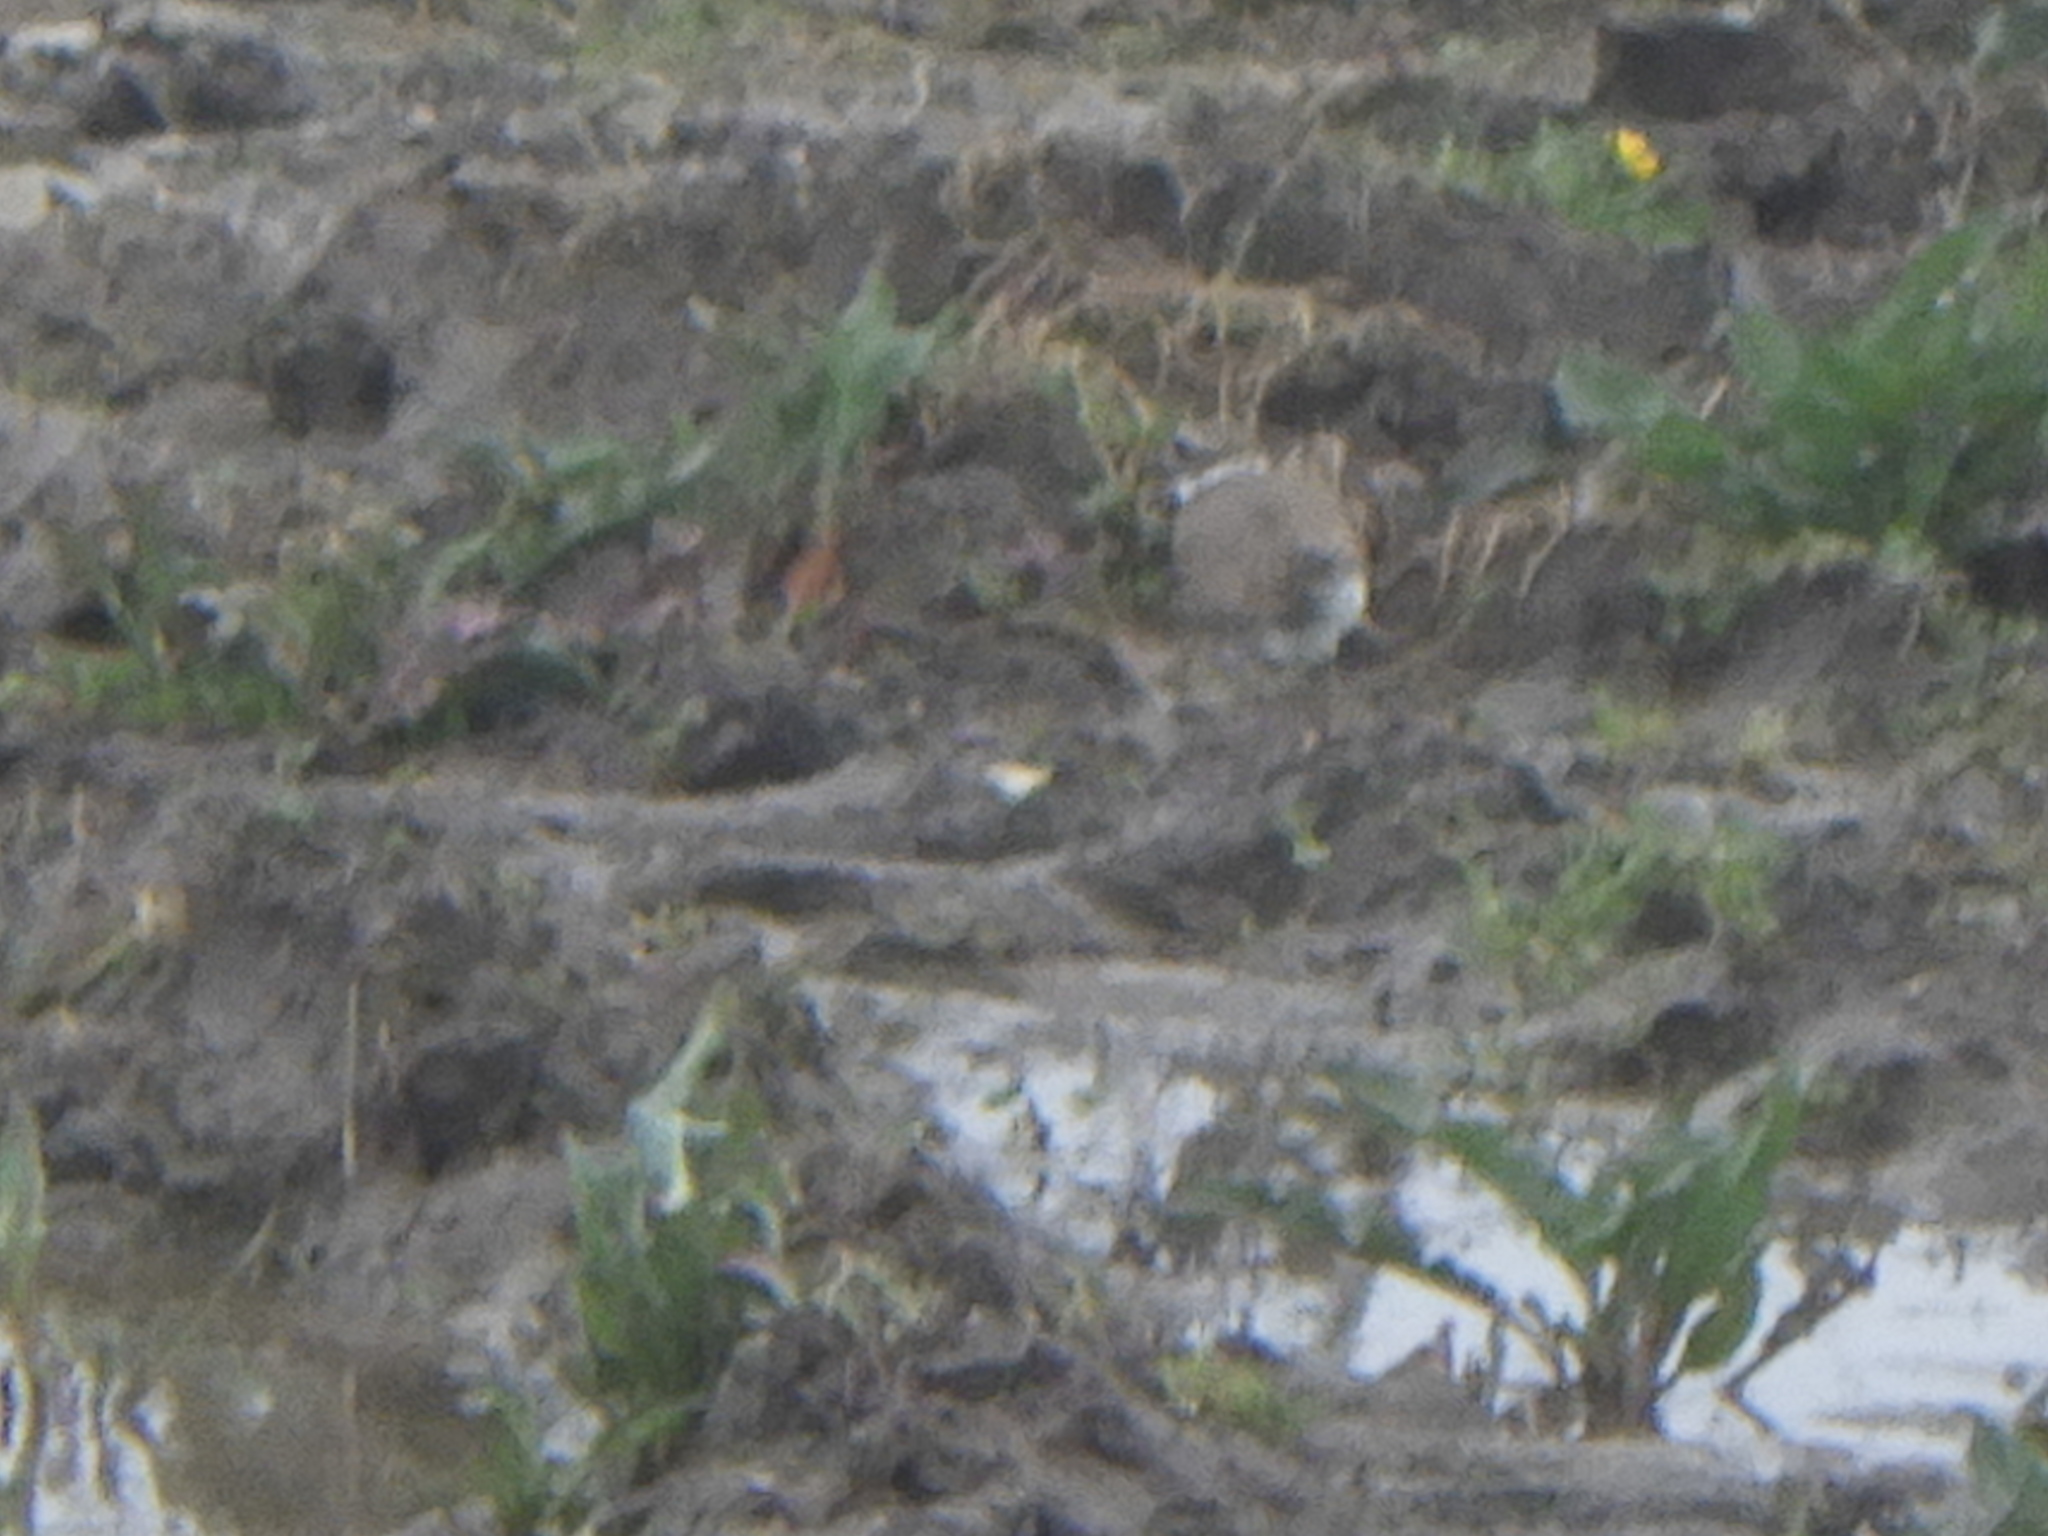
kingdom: Animalia
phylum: Chordata
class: Aves
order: Charadriiformes
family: Charadriidae
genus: Charadrius
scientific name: Charadrius vociferus
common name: Killdeer
